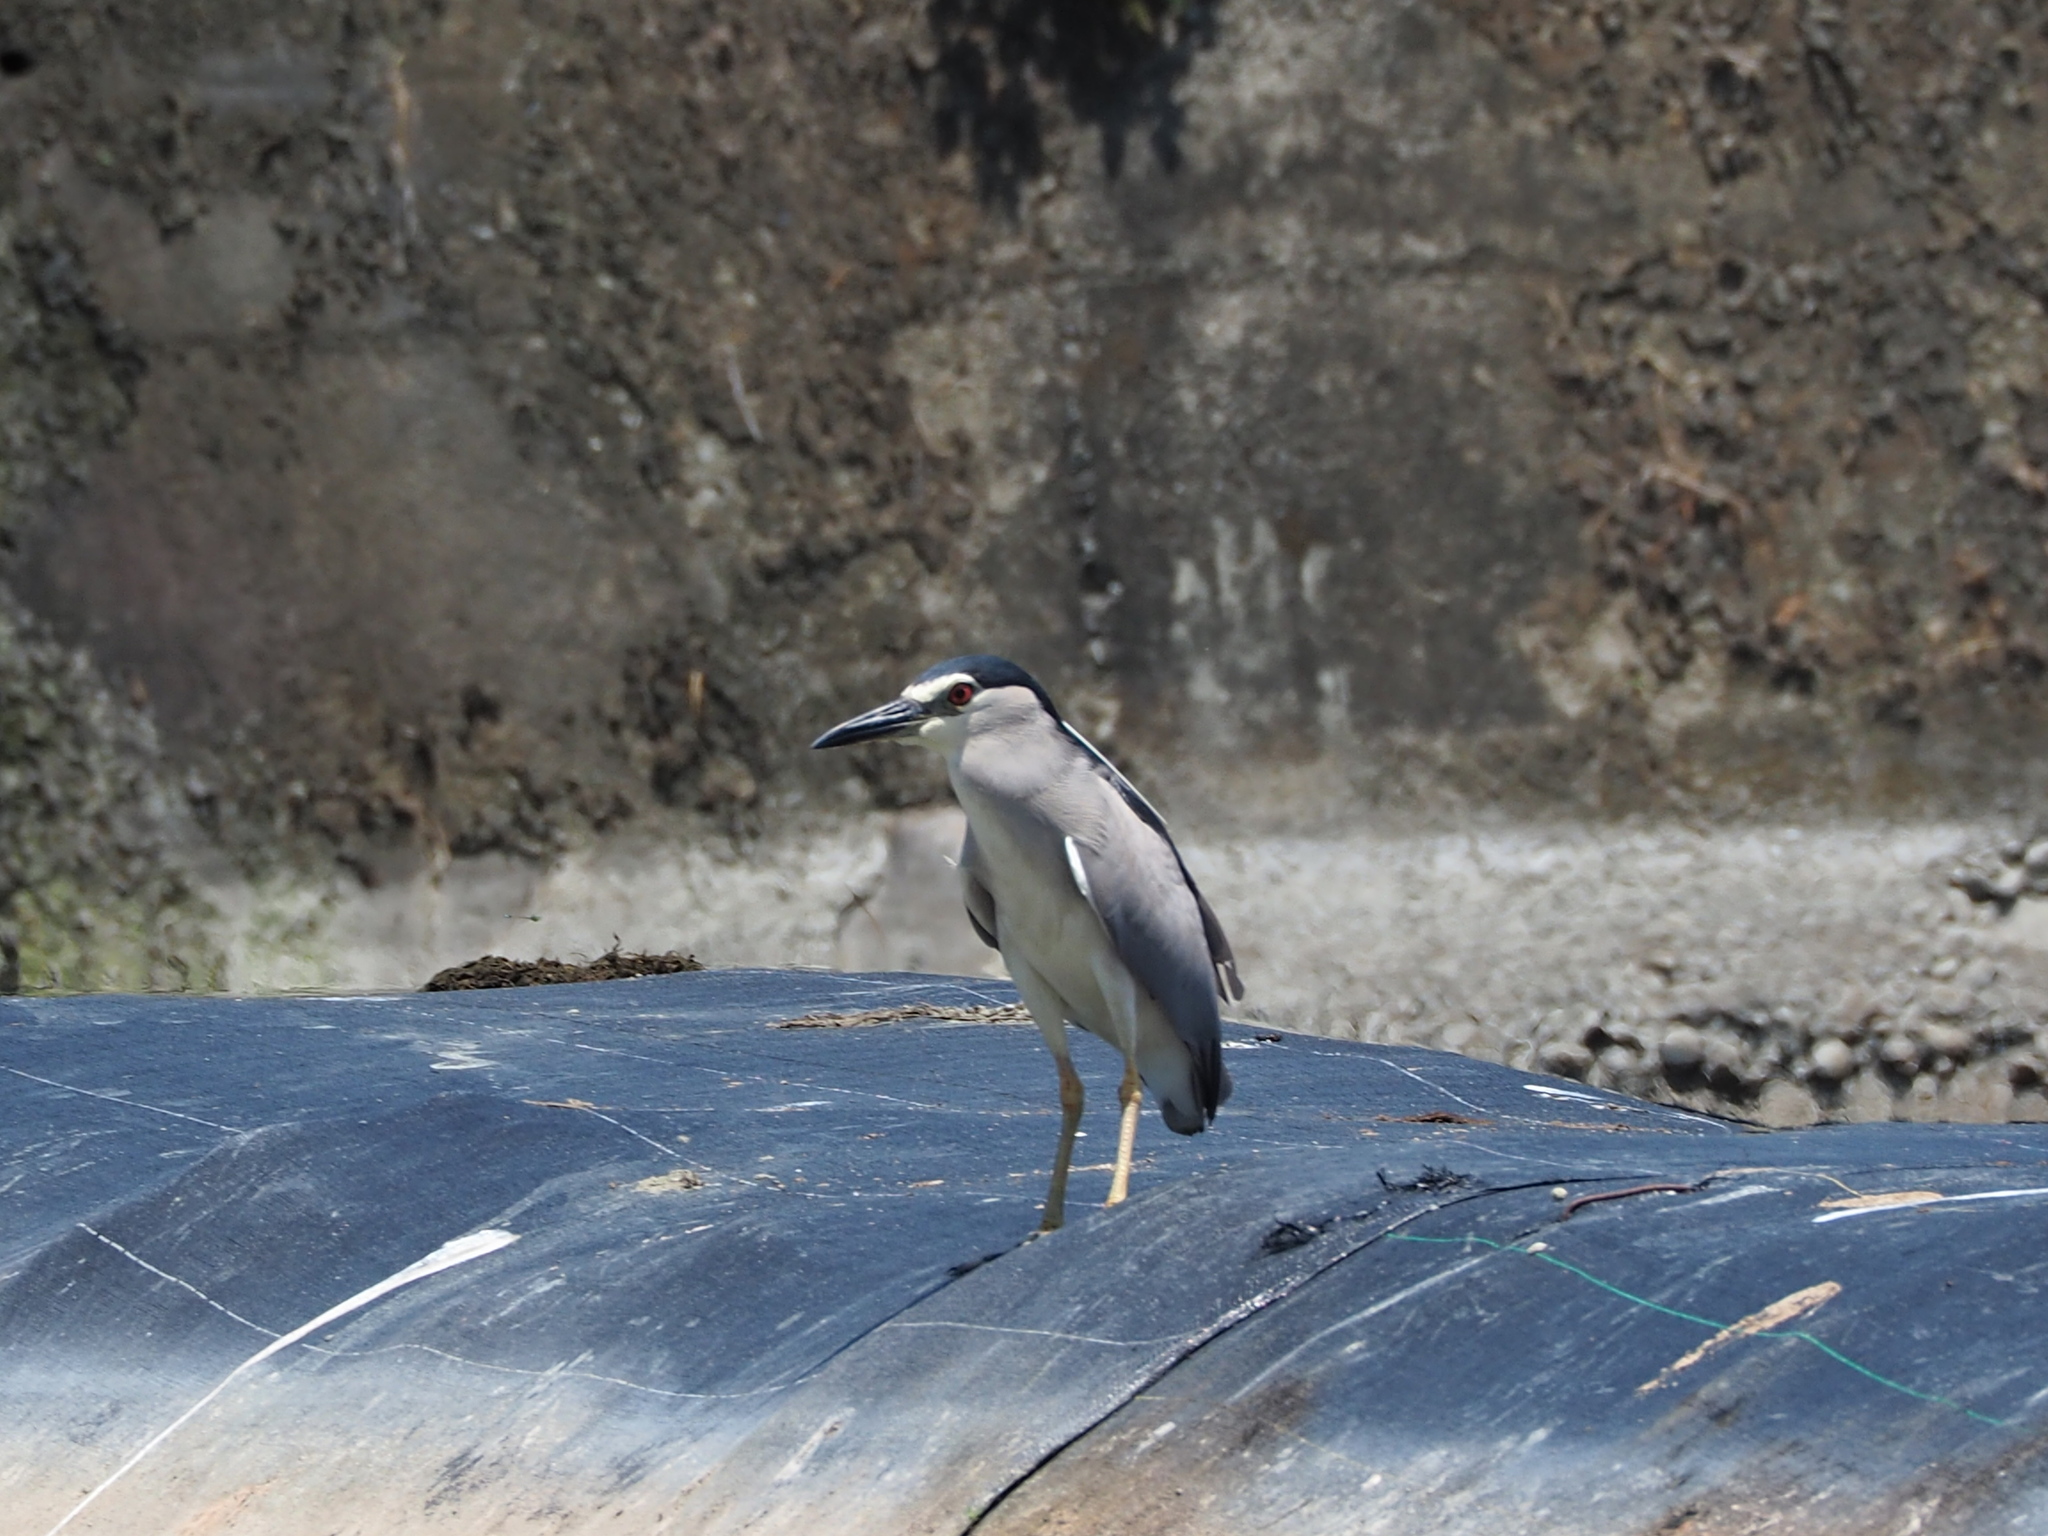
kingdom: Animalia
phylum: Chordata
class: Aves
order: Pelecaniformes
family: Ardeidae
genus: Nycticorax
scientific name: Nycticorax nycticorax
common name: Black-crowned night heron
